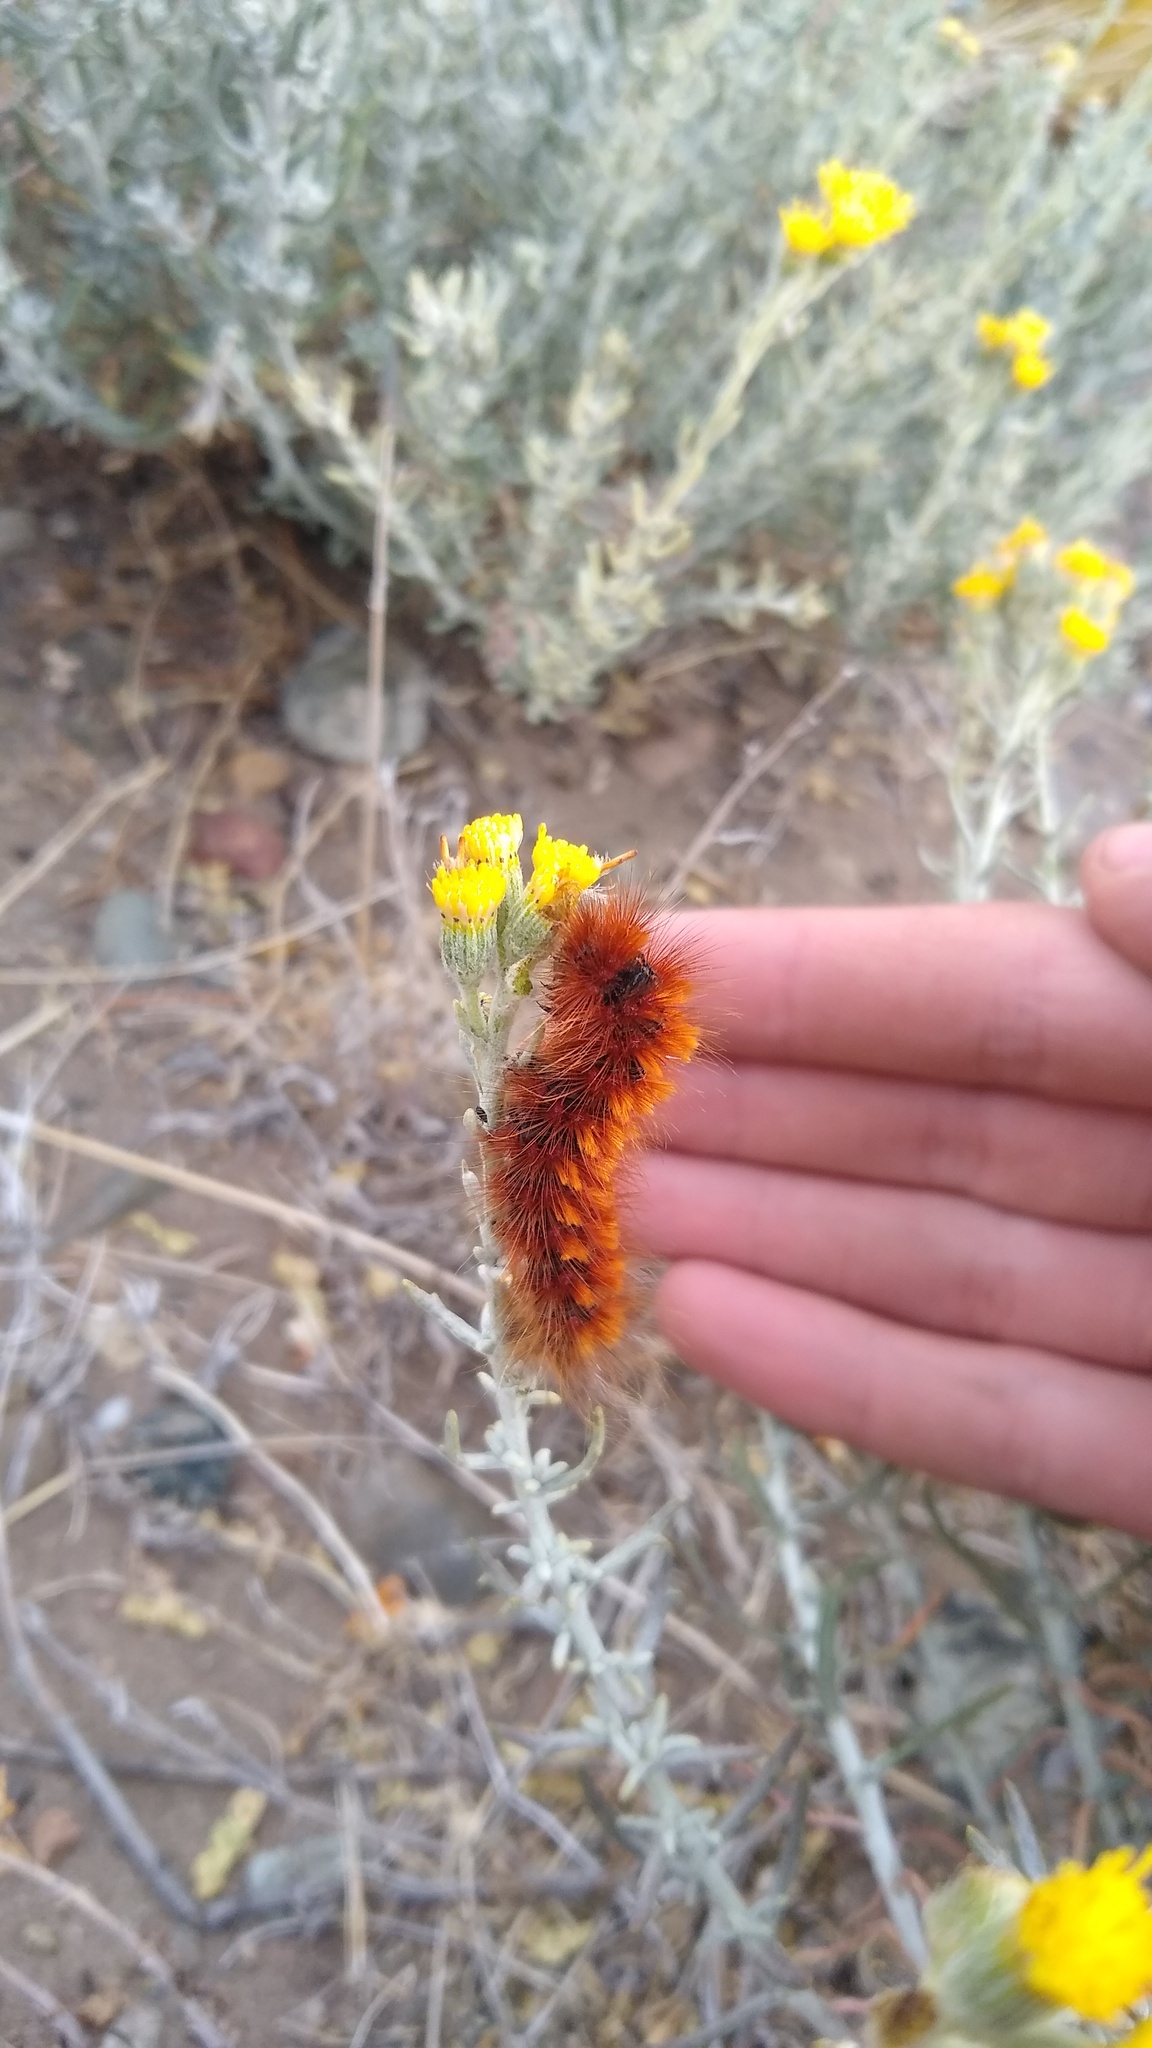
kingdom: Animalia
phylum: Arthropoda
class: Insecta
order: Lepidoptera
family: Erebidae
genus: Paracles
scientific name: Paracles severa
